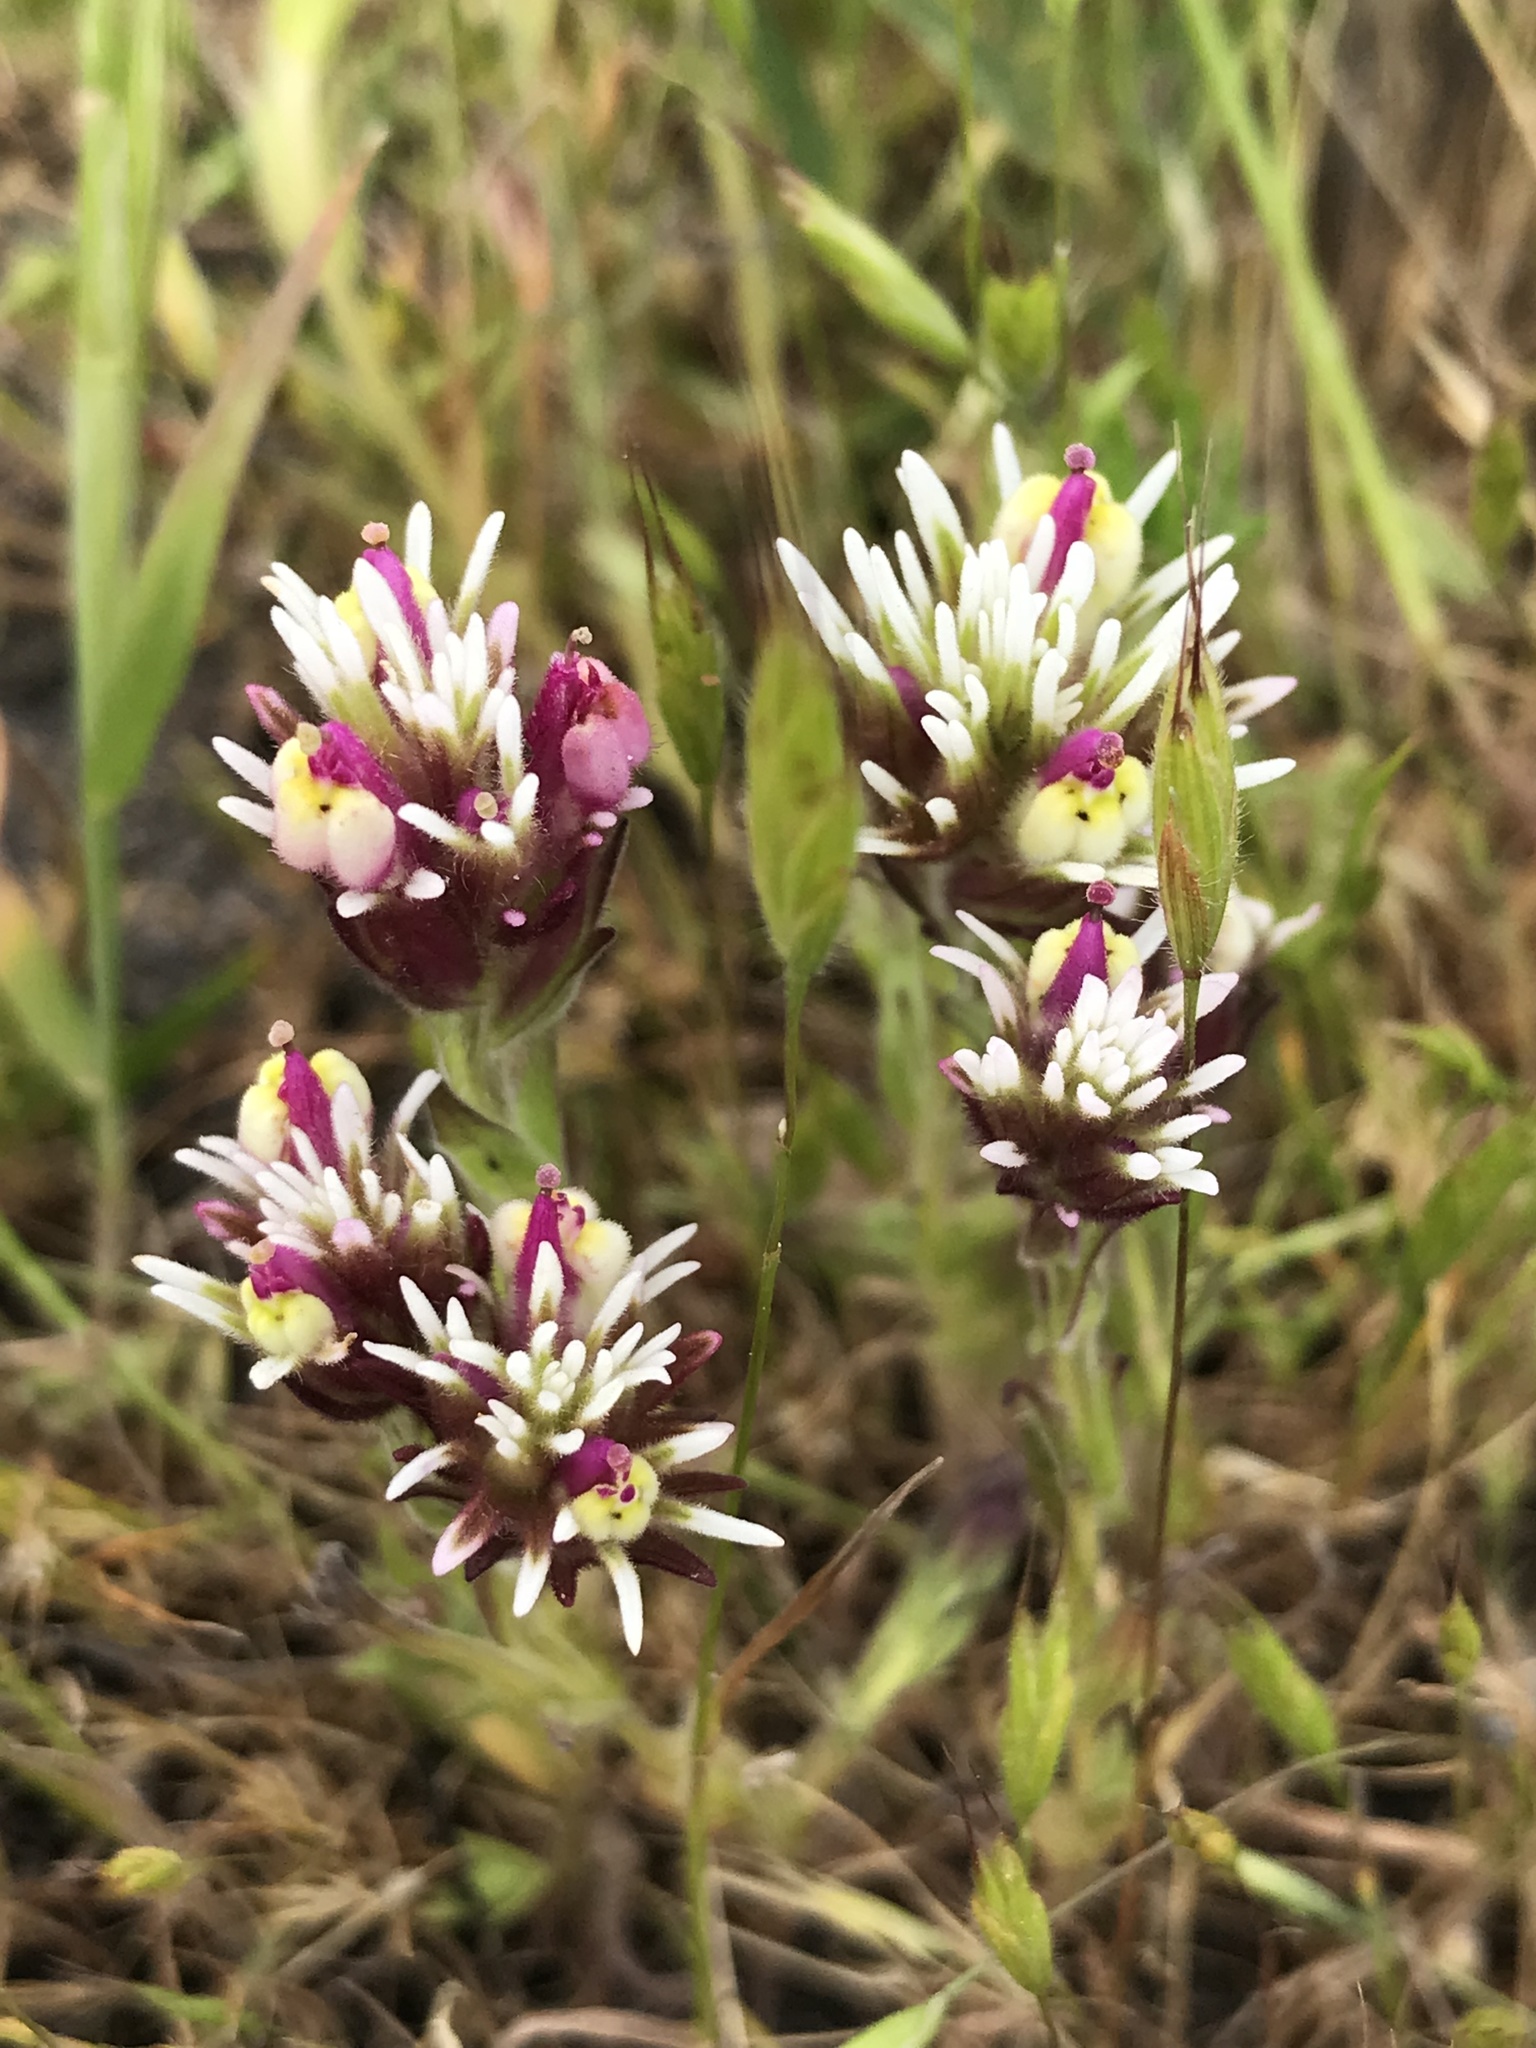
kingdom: Plantae
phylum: Tracheophyta
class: Magnoliopsida
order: Lamiales
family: Orobanchaceae
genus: Castilleja
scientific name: Castilleja densiflora
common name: Dense-flower indian paintbrush
